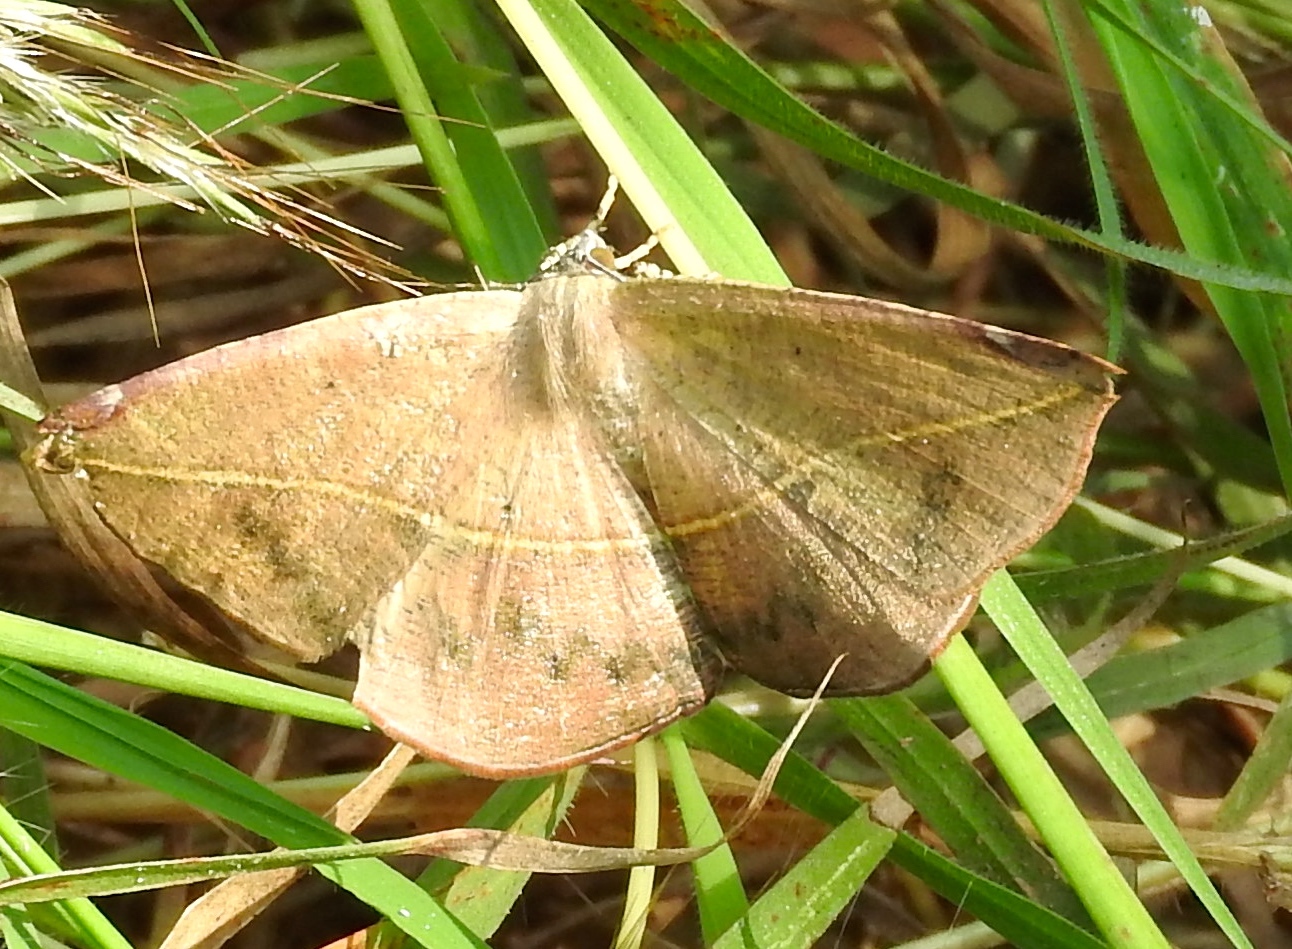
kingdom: Animalia
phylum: Arthropoda
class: Insecta
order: Lepidoptera
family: Geometridae
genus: Cratoptera
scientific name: Cratoptera
